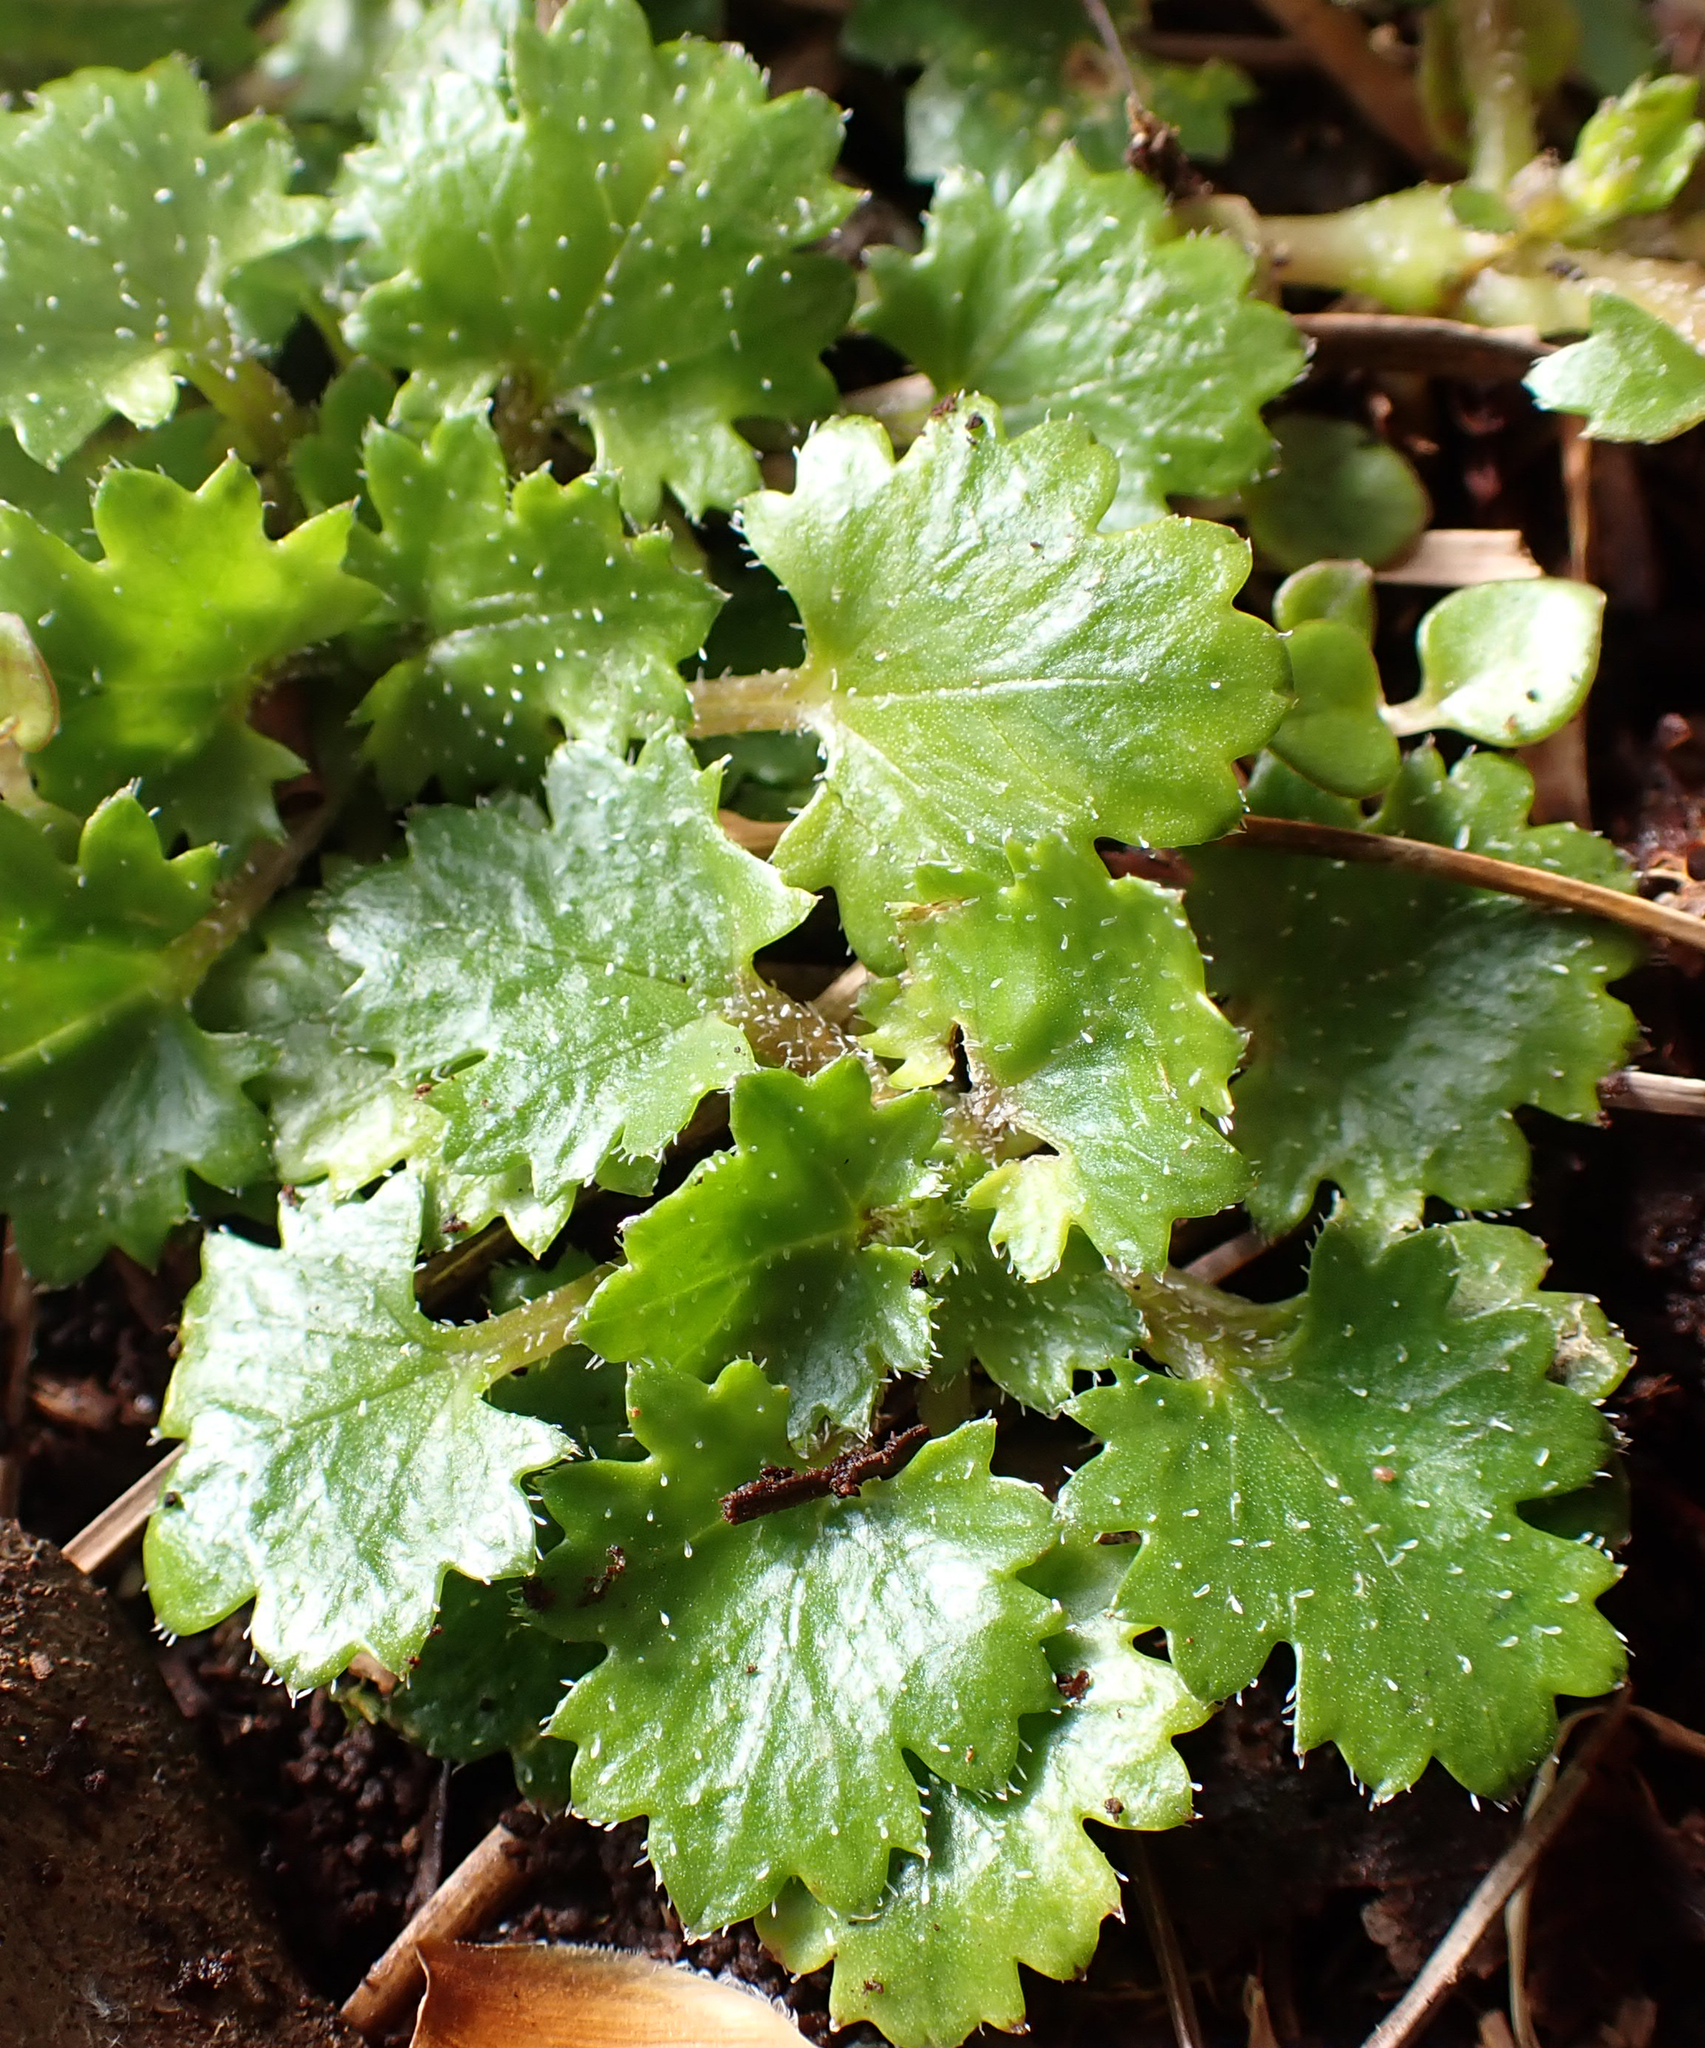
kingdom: Plantae
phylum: Tracheophyta
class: Magnoliopsida
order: Gunnerales
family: Gunneraceae
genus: Gunnera
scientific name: Gunnera monoica
